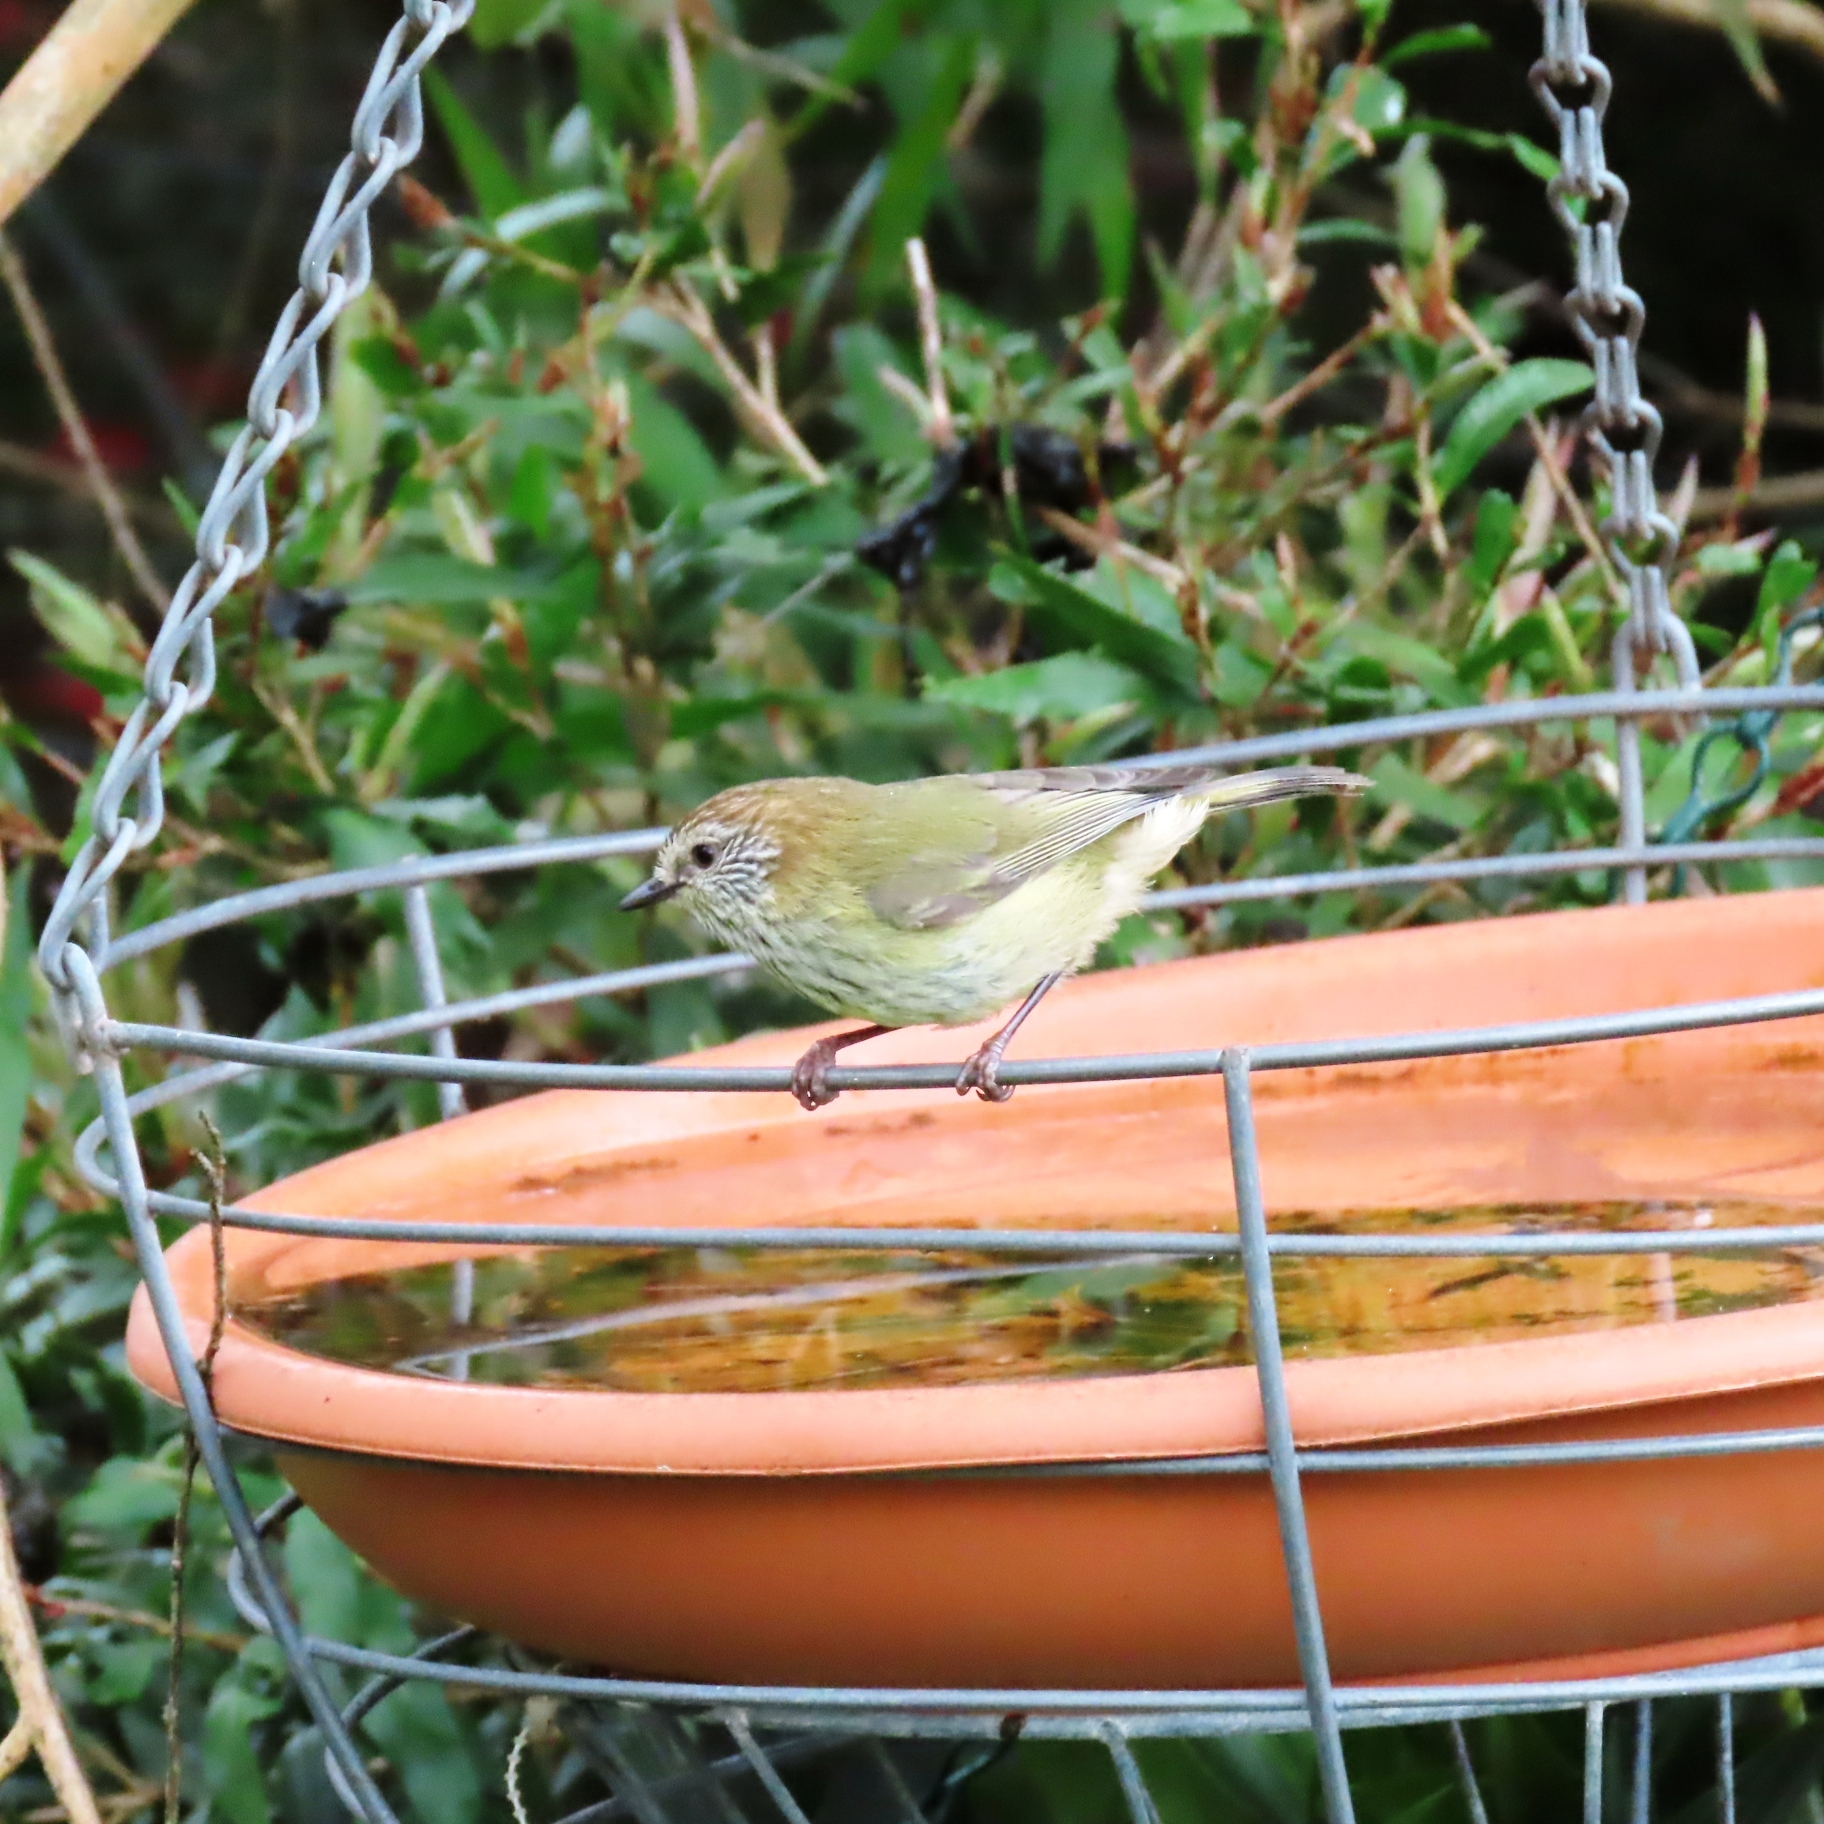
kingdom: Animalia
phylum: Chordata
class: Aves
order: Passeriformes
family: Acanthizidae
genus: Acanthiza
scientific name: Acanthiza lineata
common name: Striated thornbill
